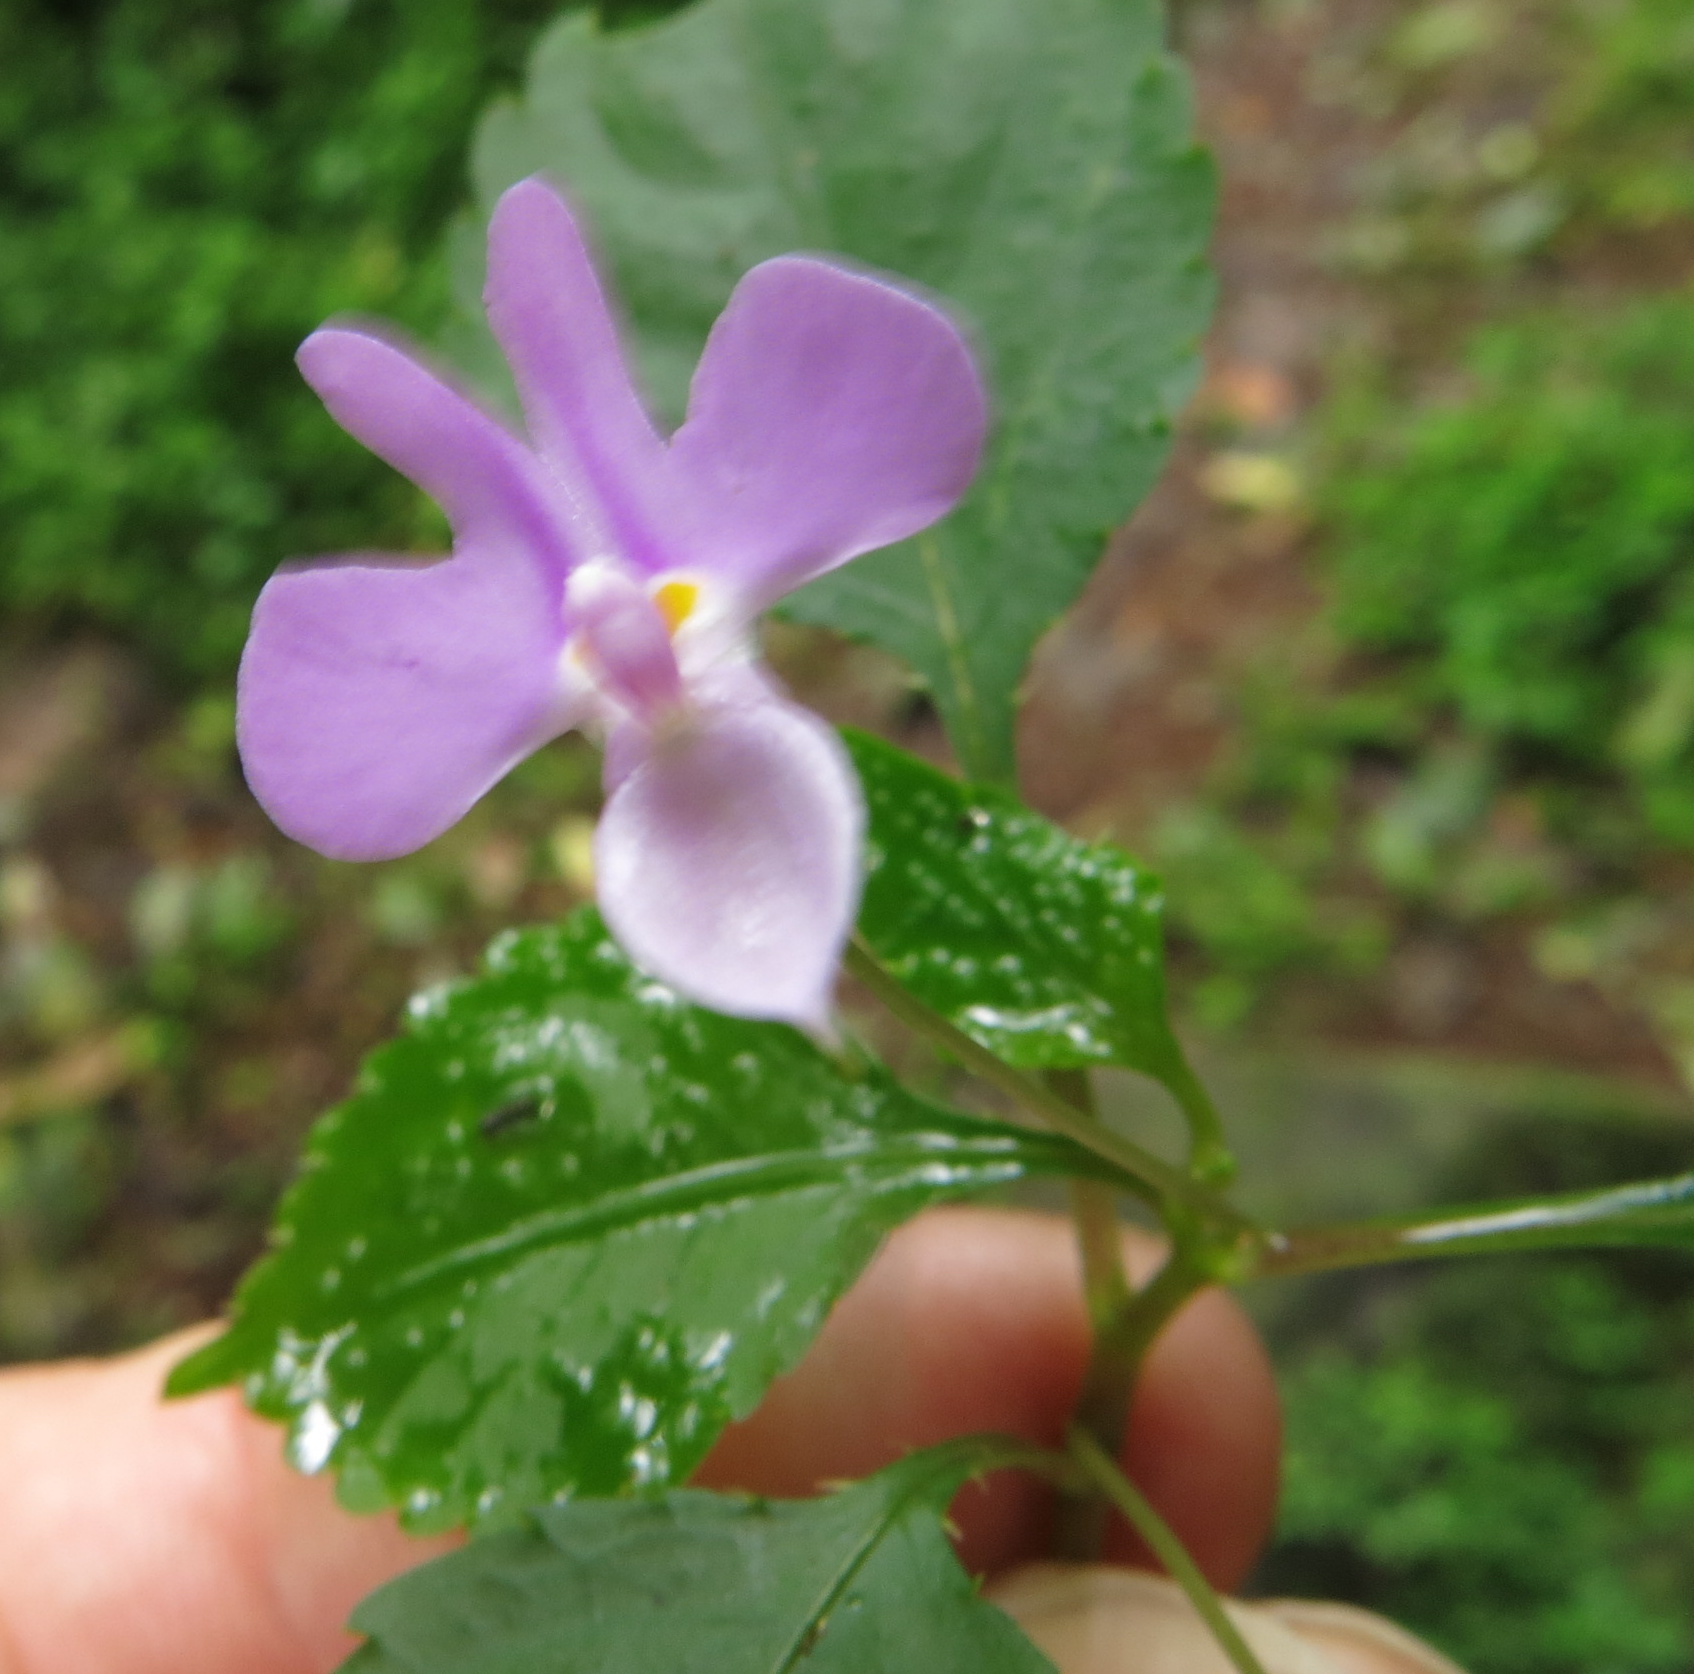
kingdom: Plantae
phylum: Tracheophyta
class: Magnoliopsida
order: Ericales
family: Balsaminaceae
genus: Impatiens
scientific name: Impatiens hochstetteri
